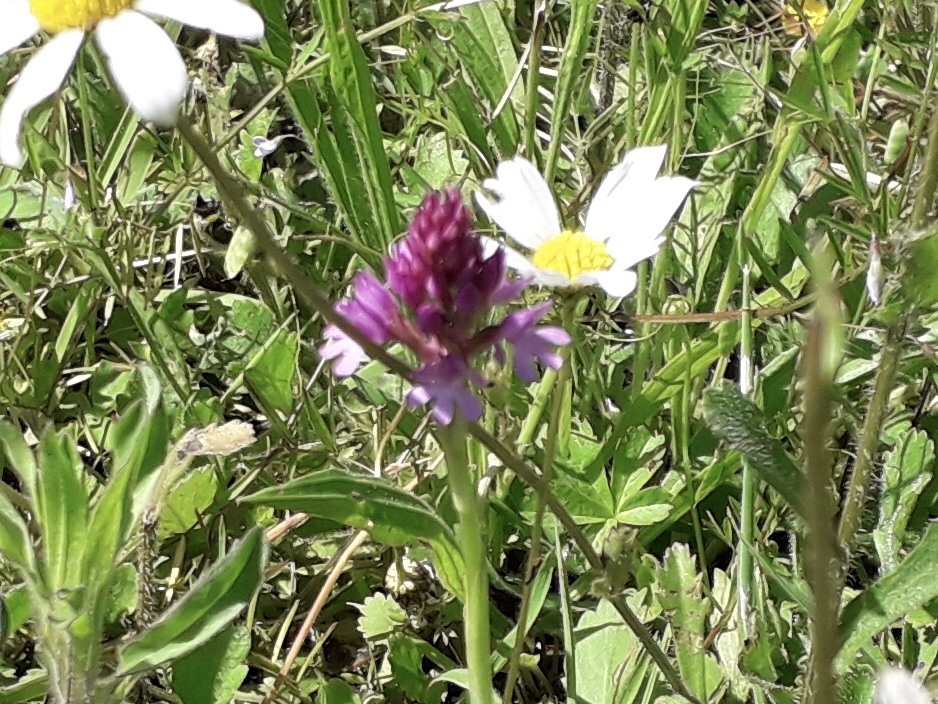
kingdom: Plantae
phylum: Tracheophyta
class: Liliopsida
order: Asparagales
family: Orchidaceae
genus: Anacamptis
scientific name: Anacamptis pyramidalis
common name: Pyramidal orchid
